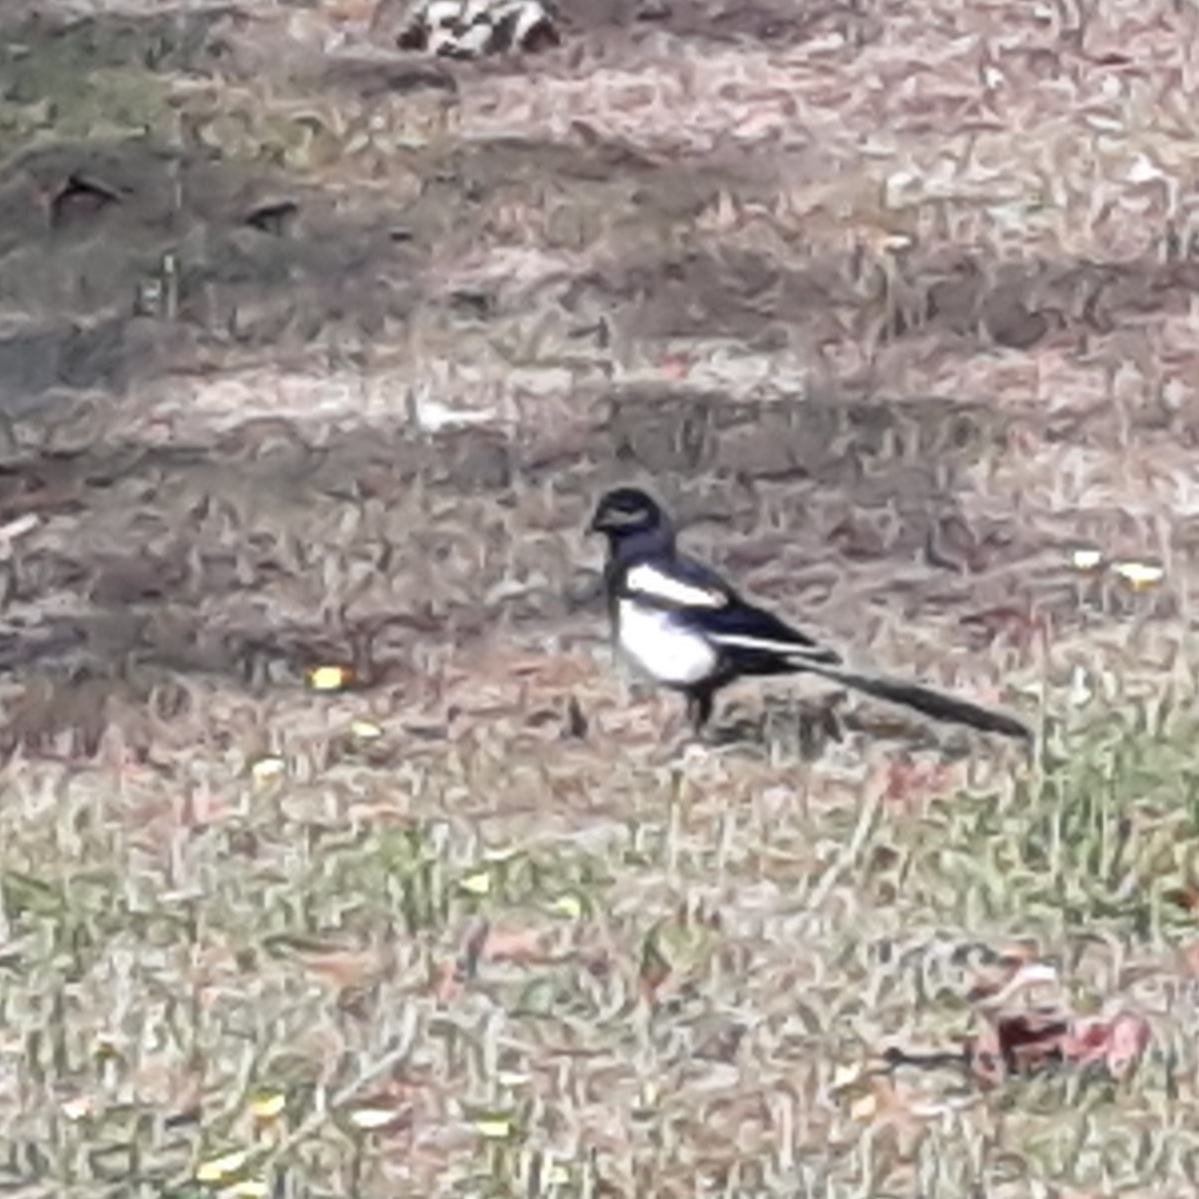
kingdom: Animalia
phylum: Chordata
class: Aves
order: Passeriformes
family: Corvidae
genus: Pica
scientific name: Pica pica
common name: Eurasian magpie
